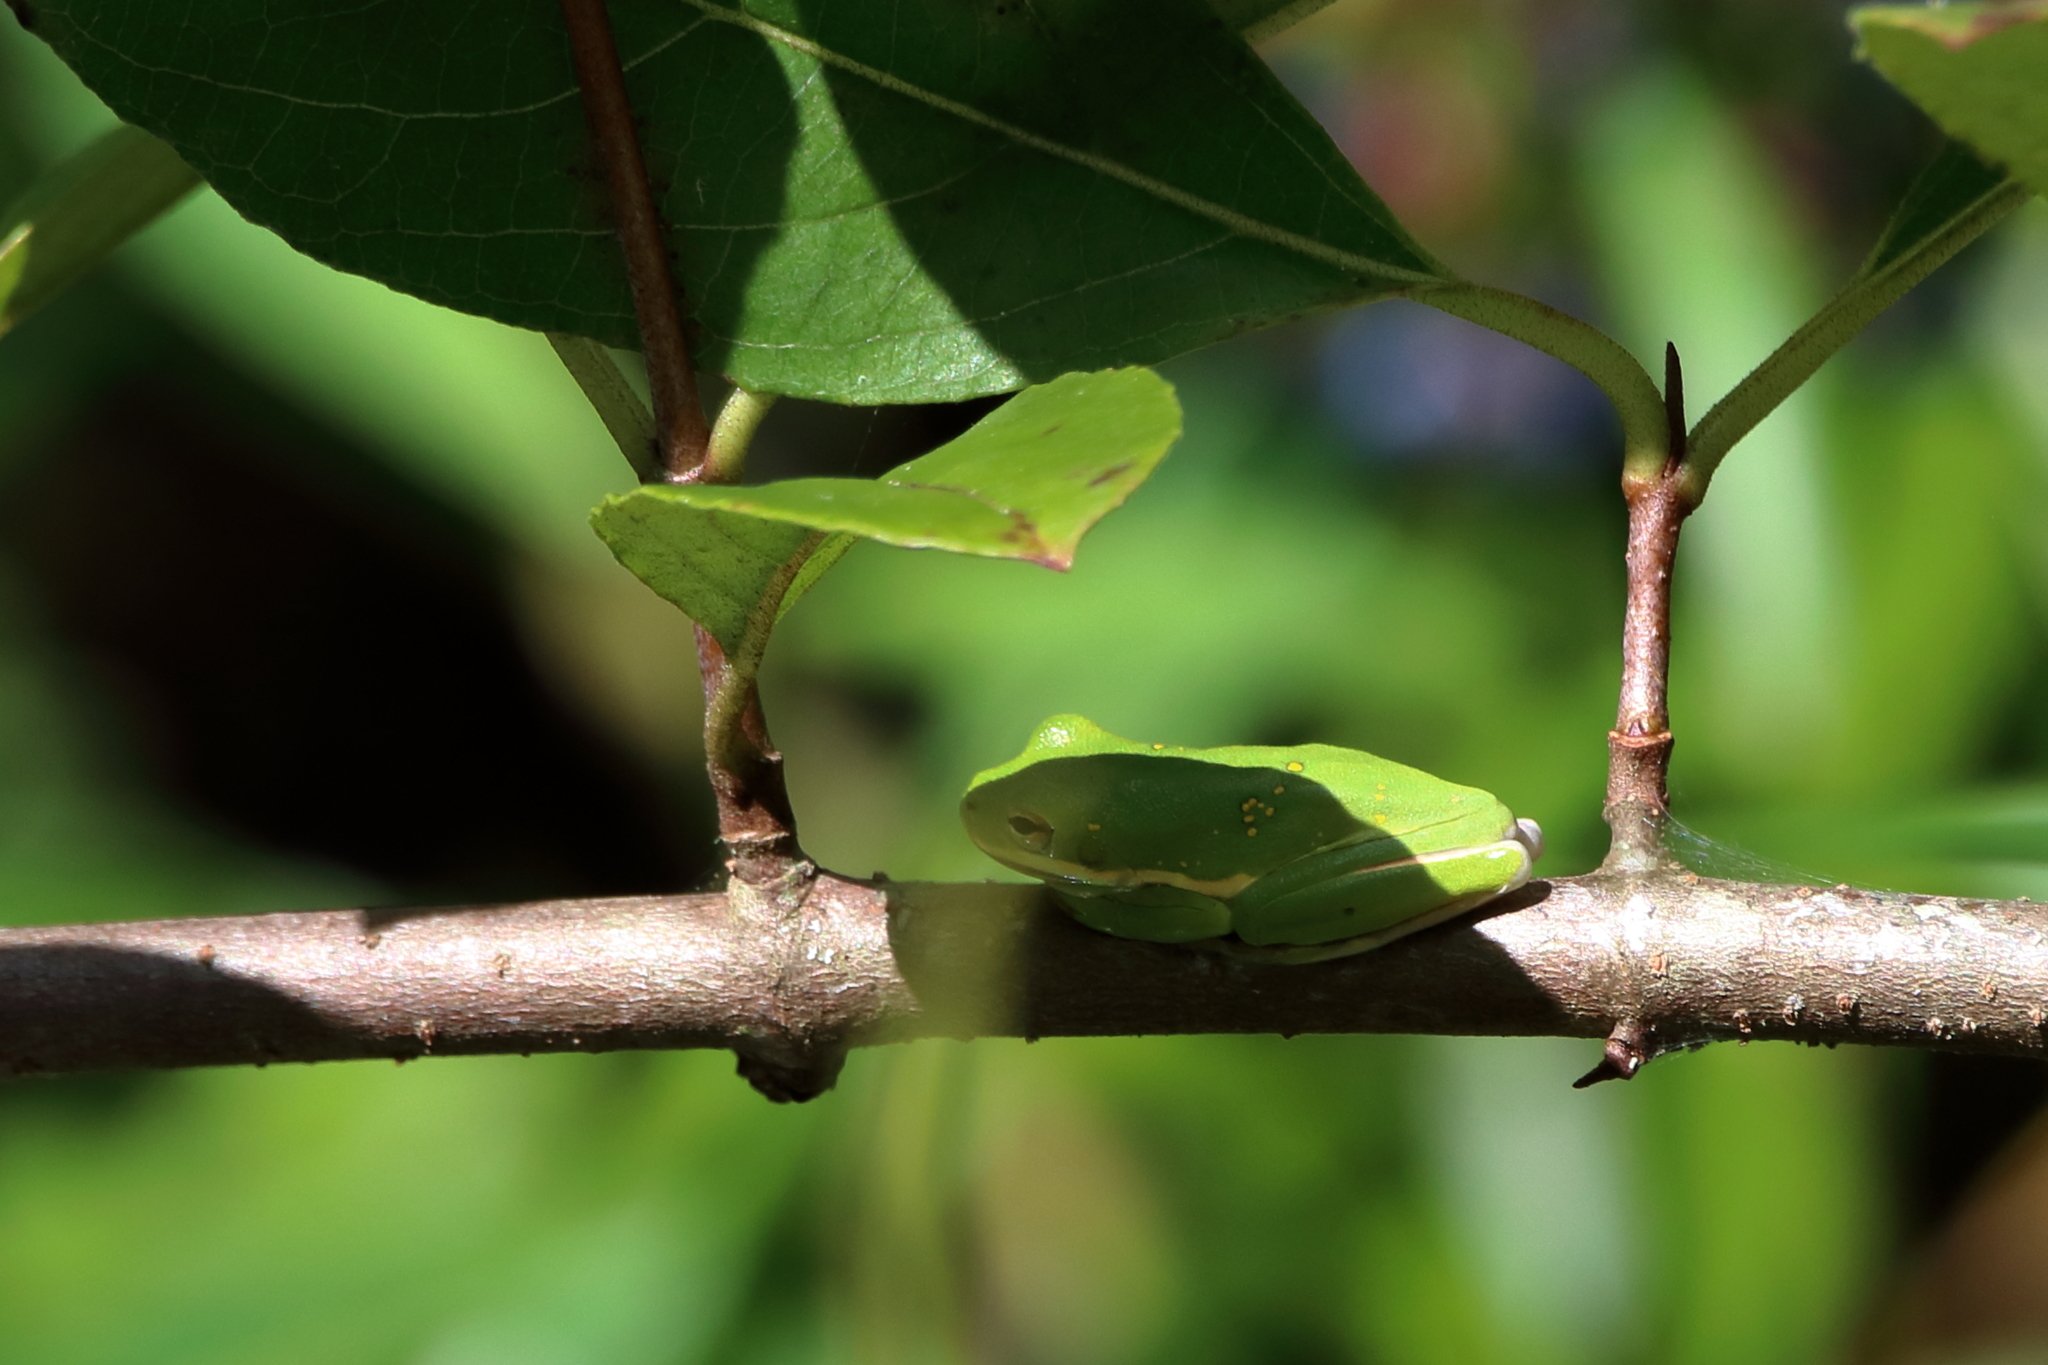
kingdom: Animalia
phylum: Chordata
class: Amphibia
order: Anura
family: Hylidae
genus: Dryophytes
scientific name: Dryophytes cinereus
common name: Green treefrog
